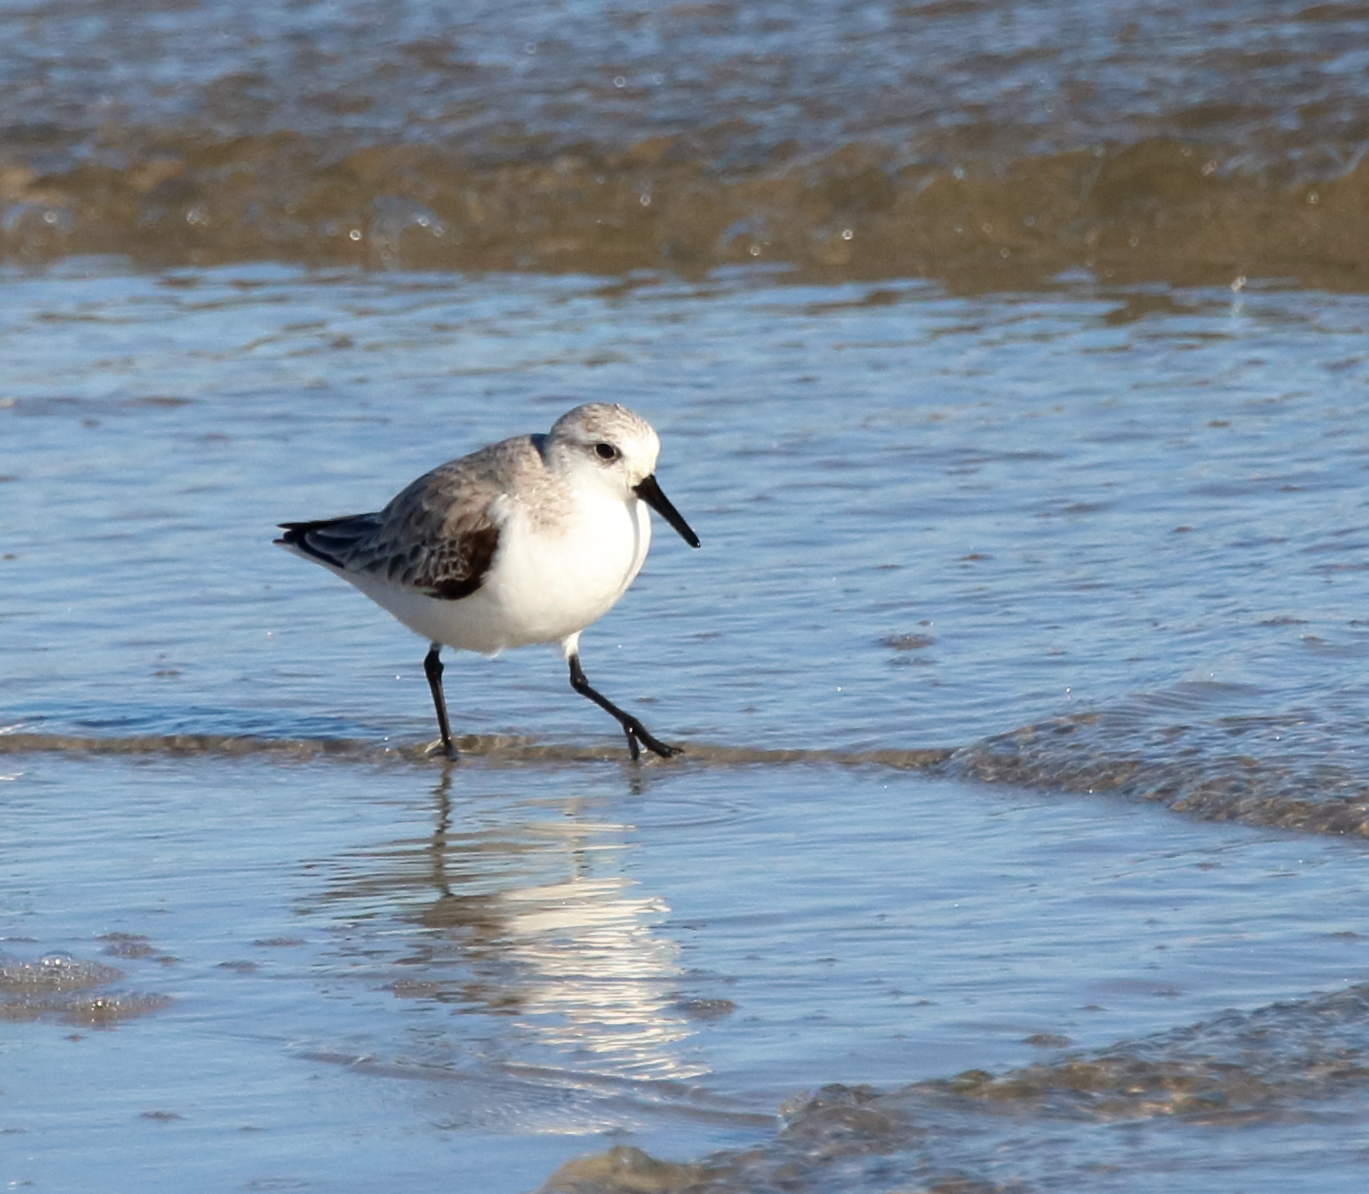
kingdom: Animalia
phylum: Chordata
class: Aves
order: Charadriiformes
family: Scolopacidae
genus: Calidris
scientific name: Calidris alba
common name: Sanderling
